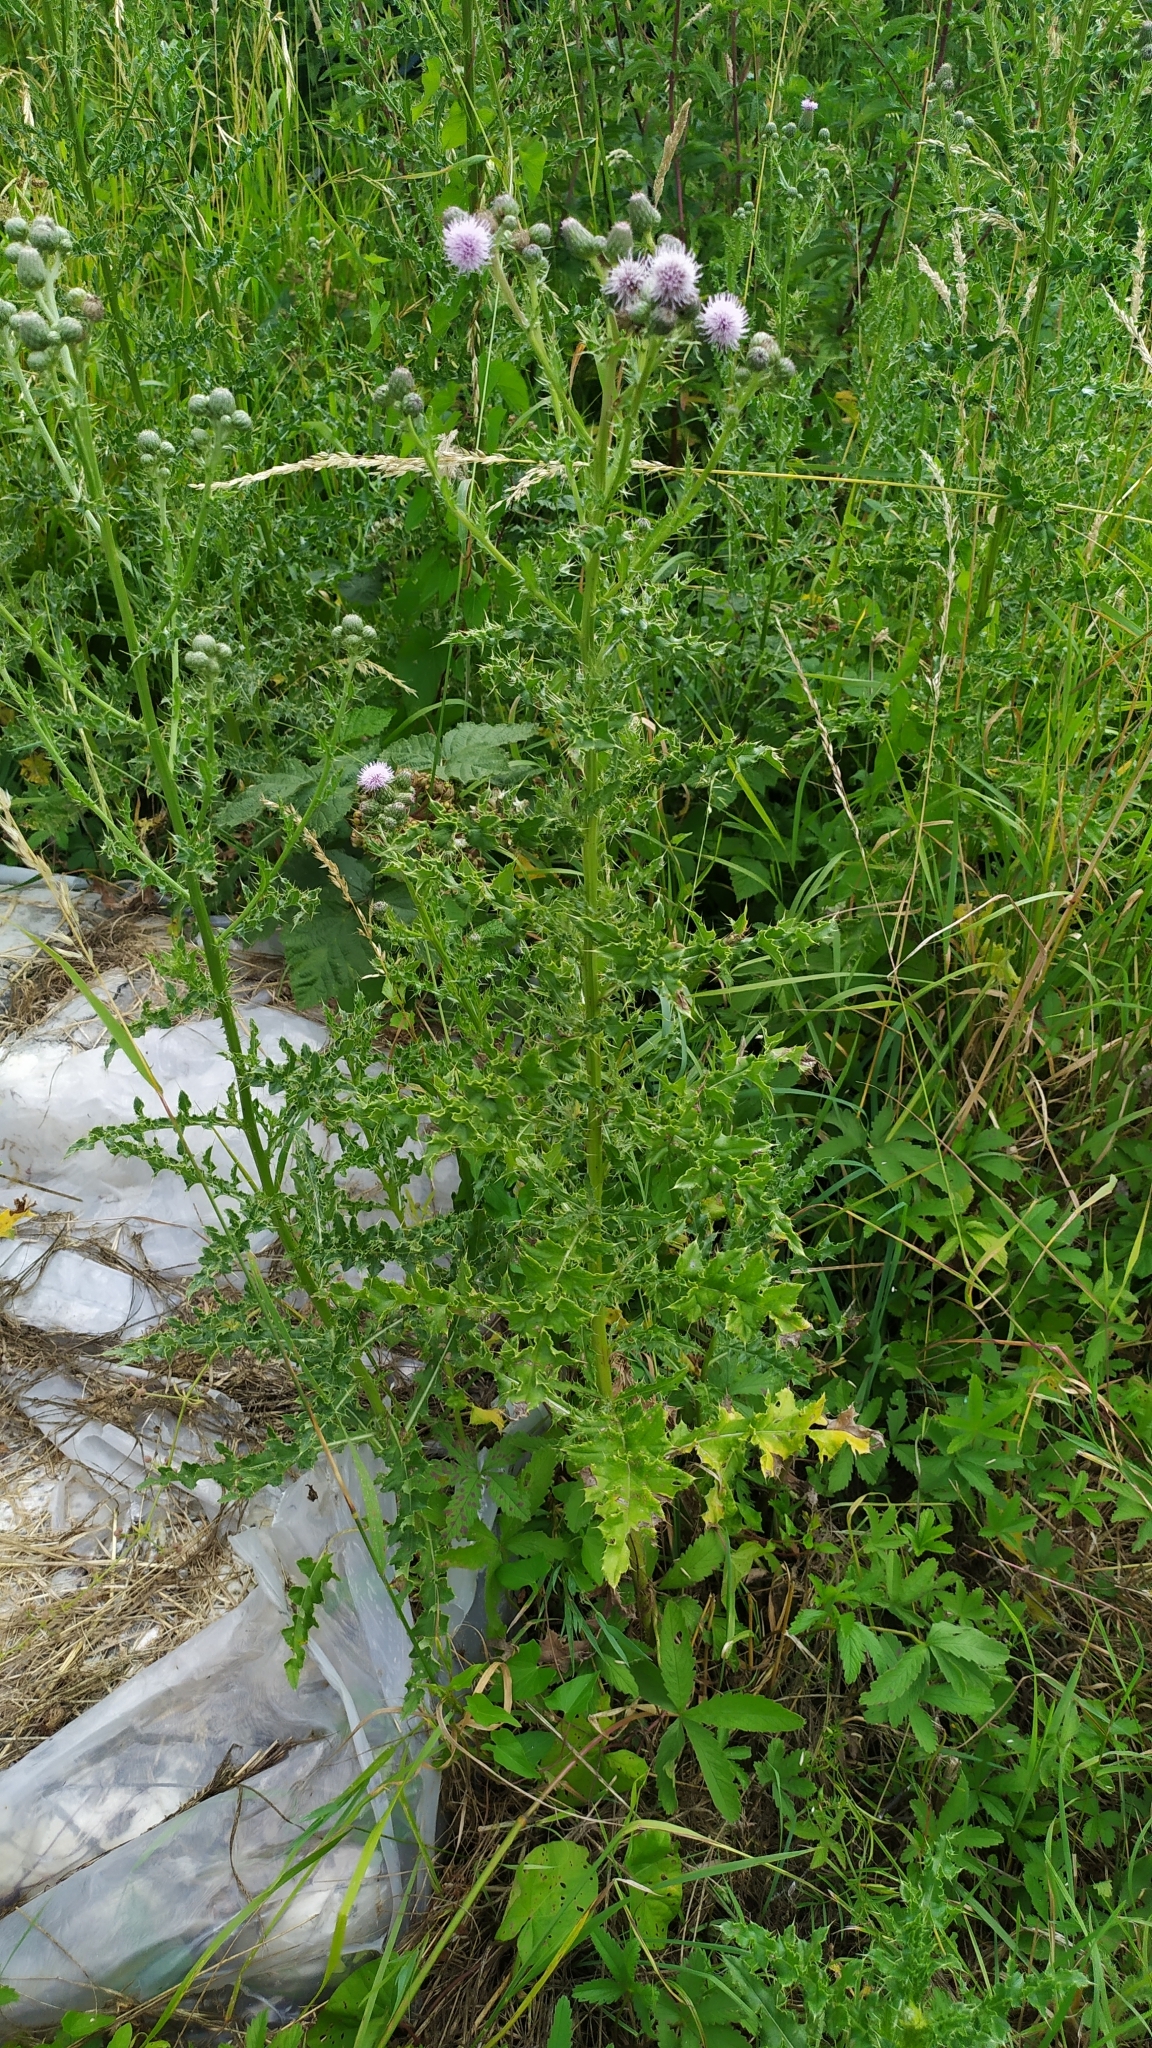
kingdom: Plantae
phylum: Tracheophyta
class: Magnoliopsida
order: Asterales
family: Asteraceae
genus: Cirsium
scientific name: Cirsium arvense
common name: Creeping thistle
